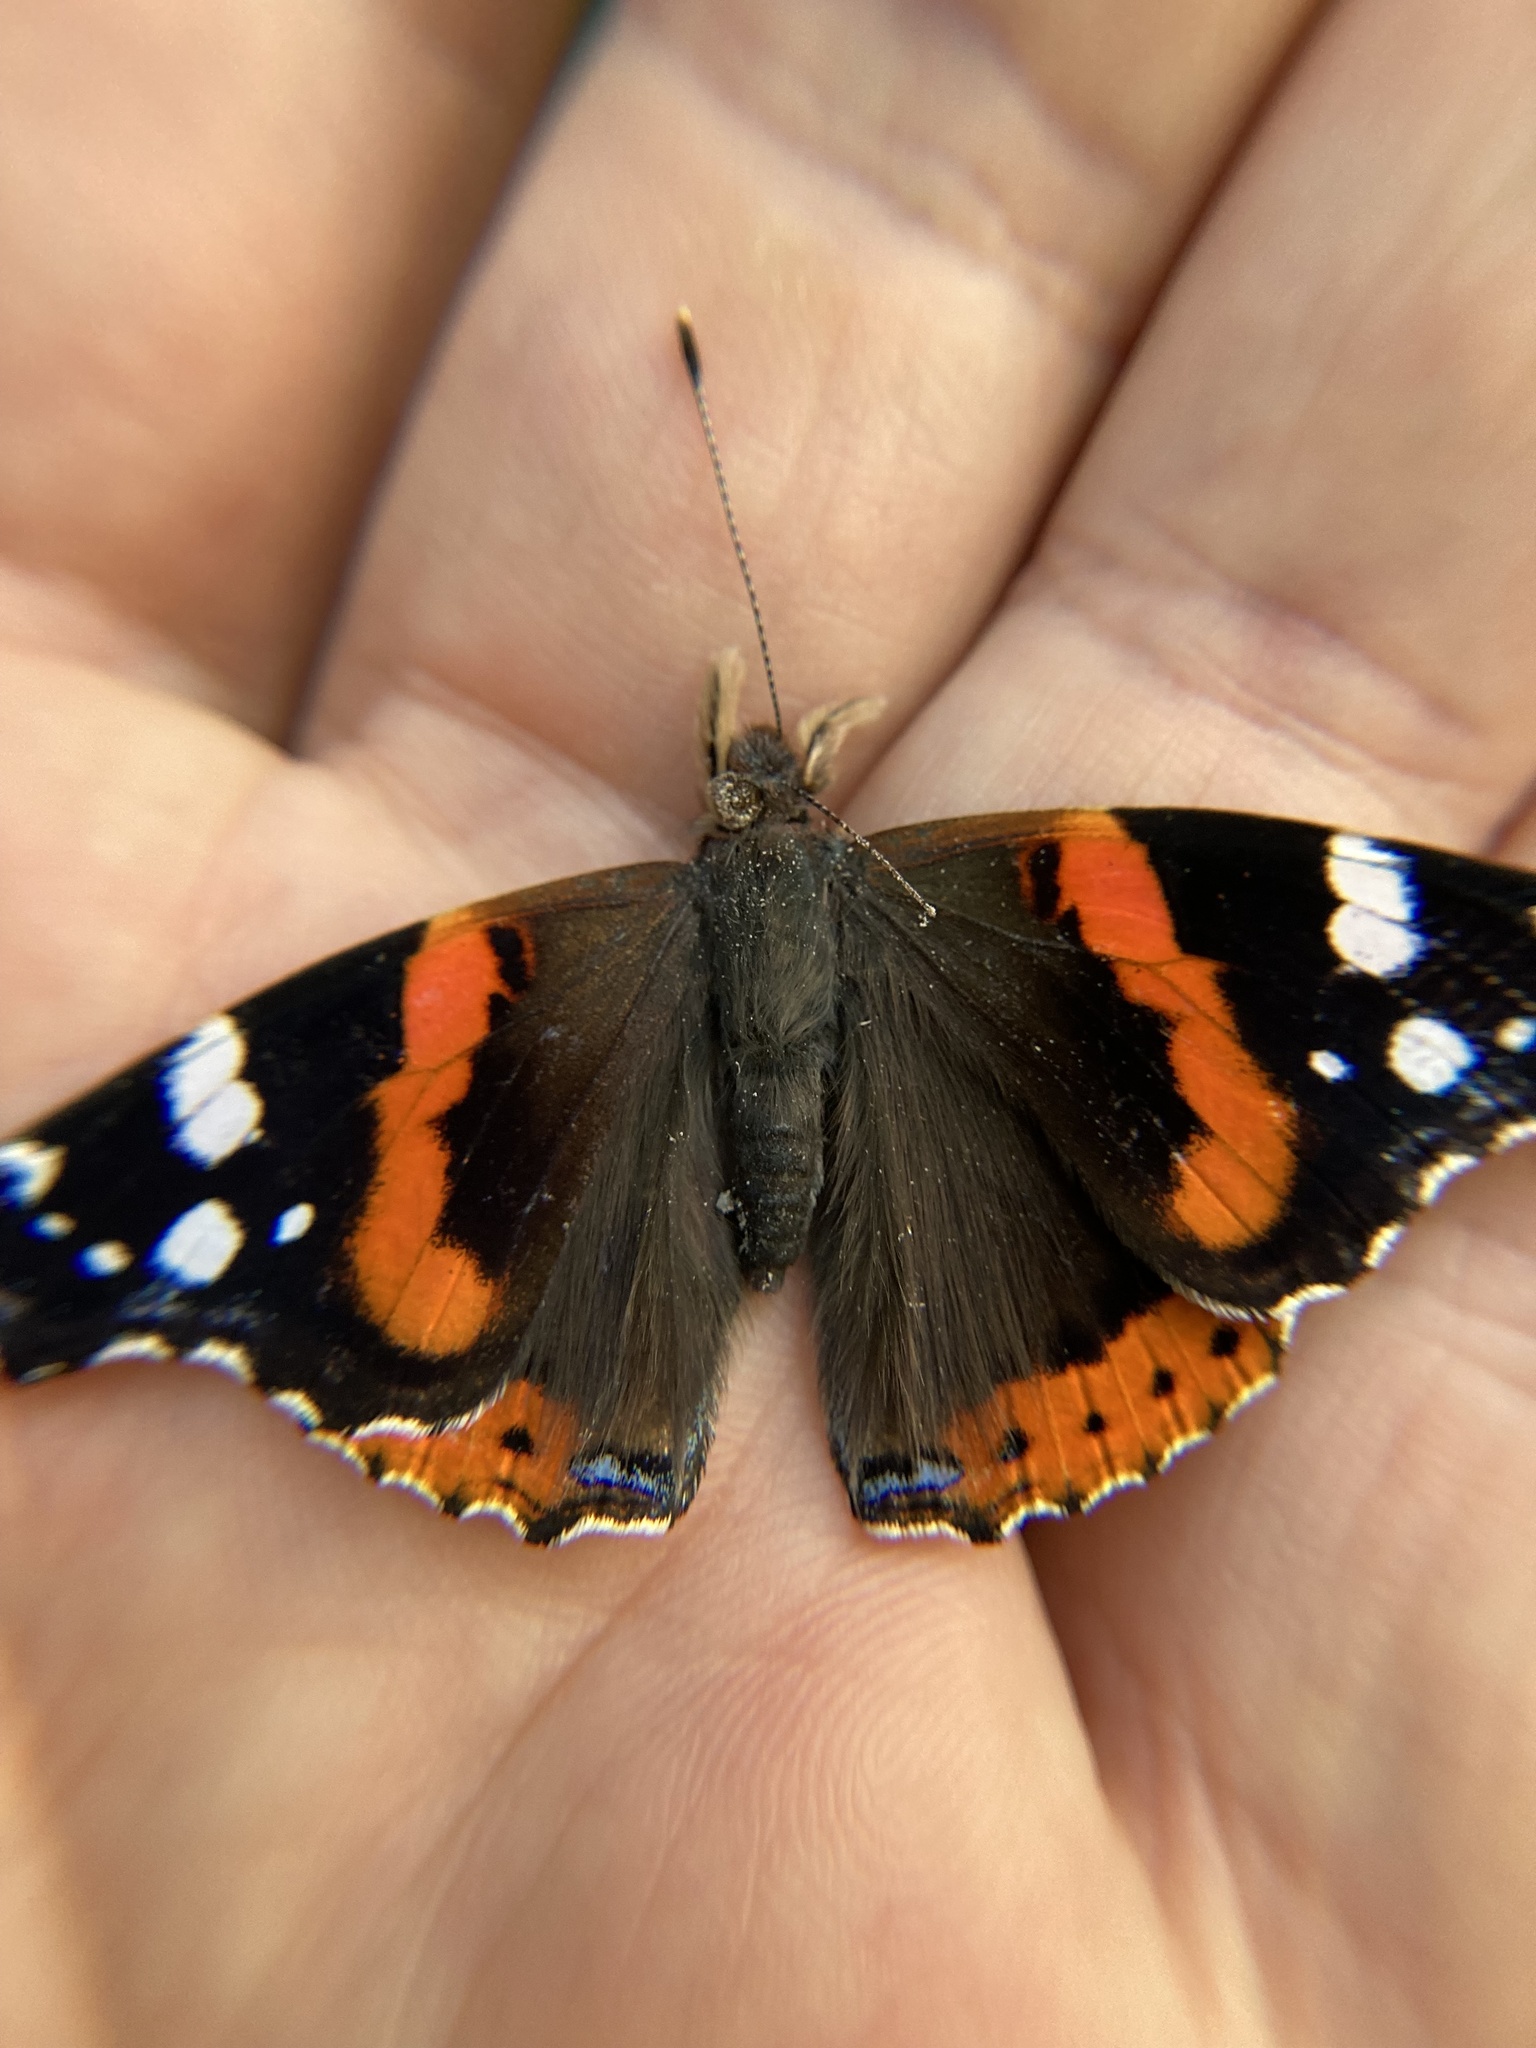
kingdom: Animalia
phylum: Arthropoda
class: Insecta
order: Lepidoptera
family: Nymphalidae
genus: Vanessa
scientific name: Vanessa atalanta
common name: Red admiral
